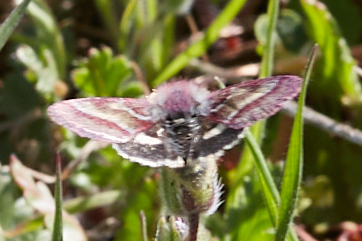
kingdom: Animalia
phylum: Arthropoda
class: Insecta
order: Lepidoptera
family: Noctuidae
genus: Schinia
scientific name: Schinia pulchripennis
